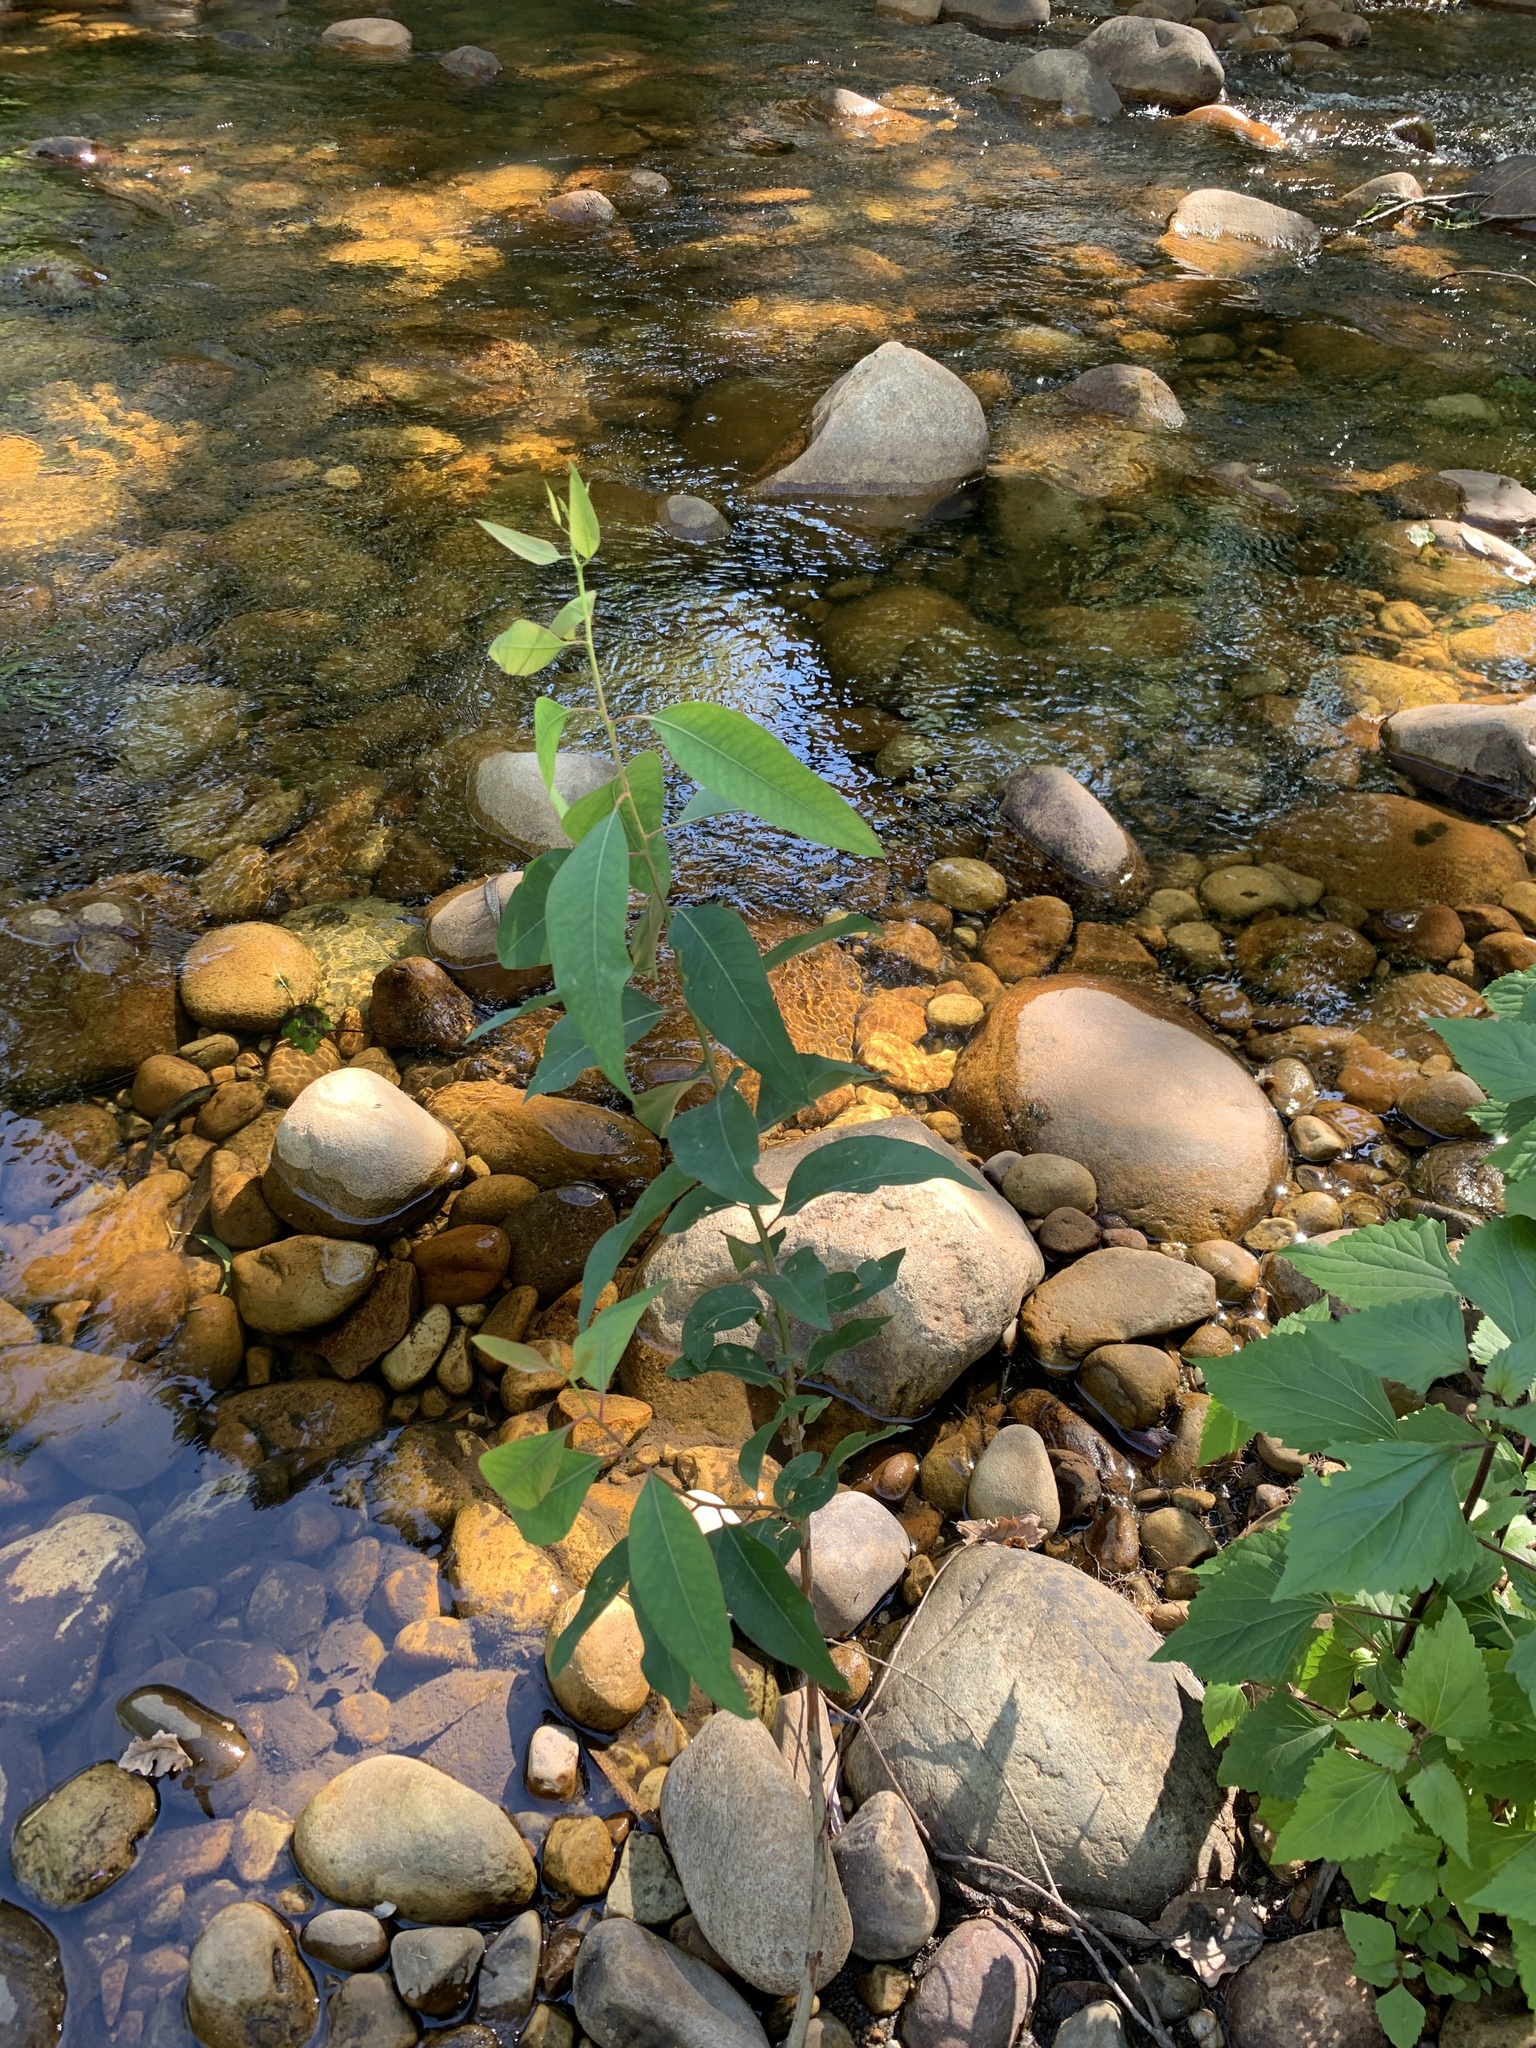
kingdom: Plantae
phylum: Tracheophyta
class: Magnoliopsida
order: Myrtales
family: Myrtaceae
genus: Eucalyptus
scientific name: Eucalyptus camaldulensis
